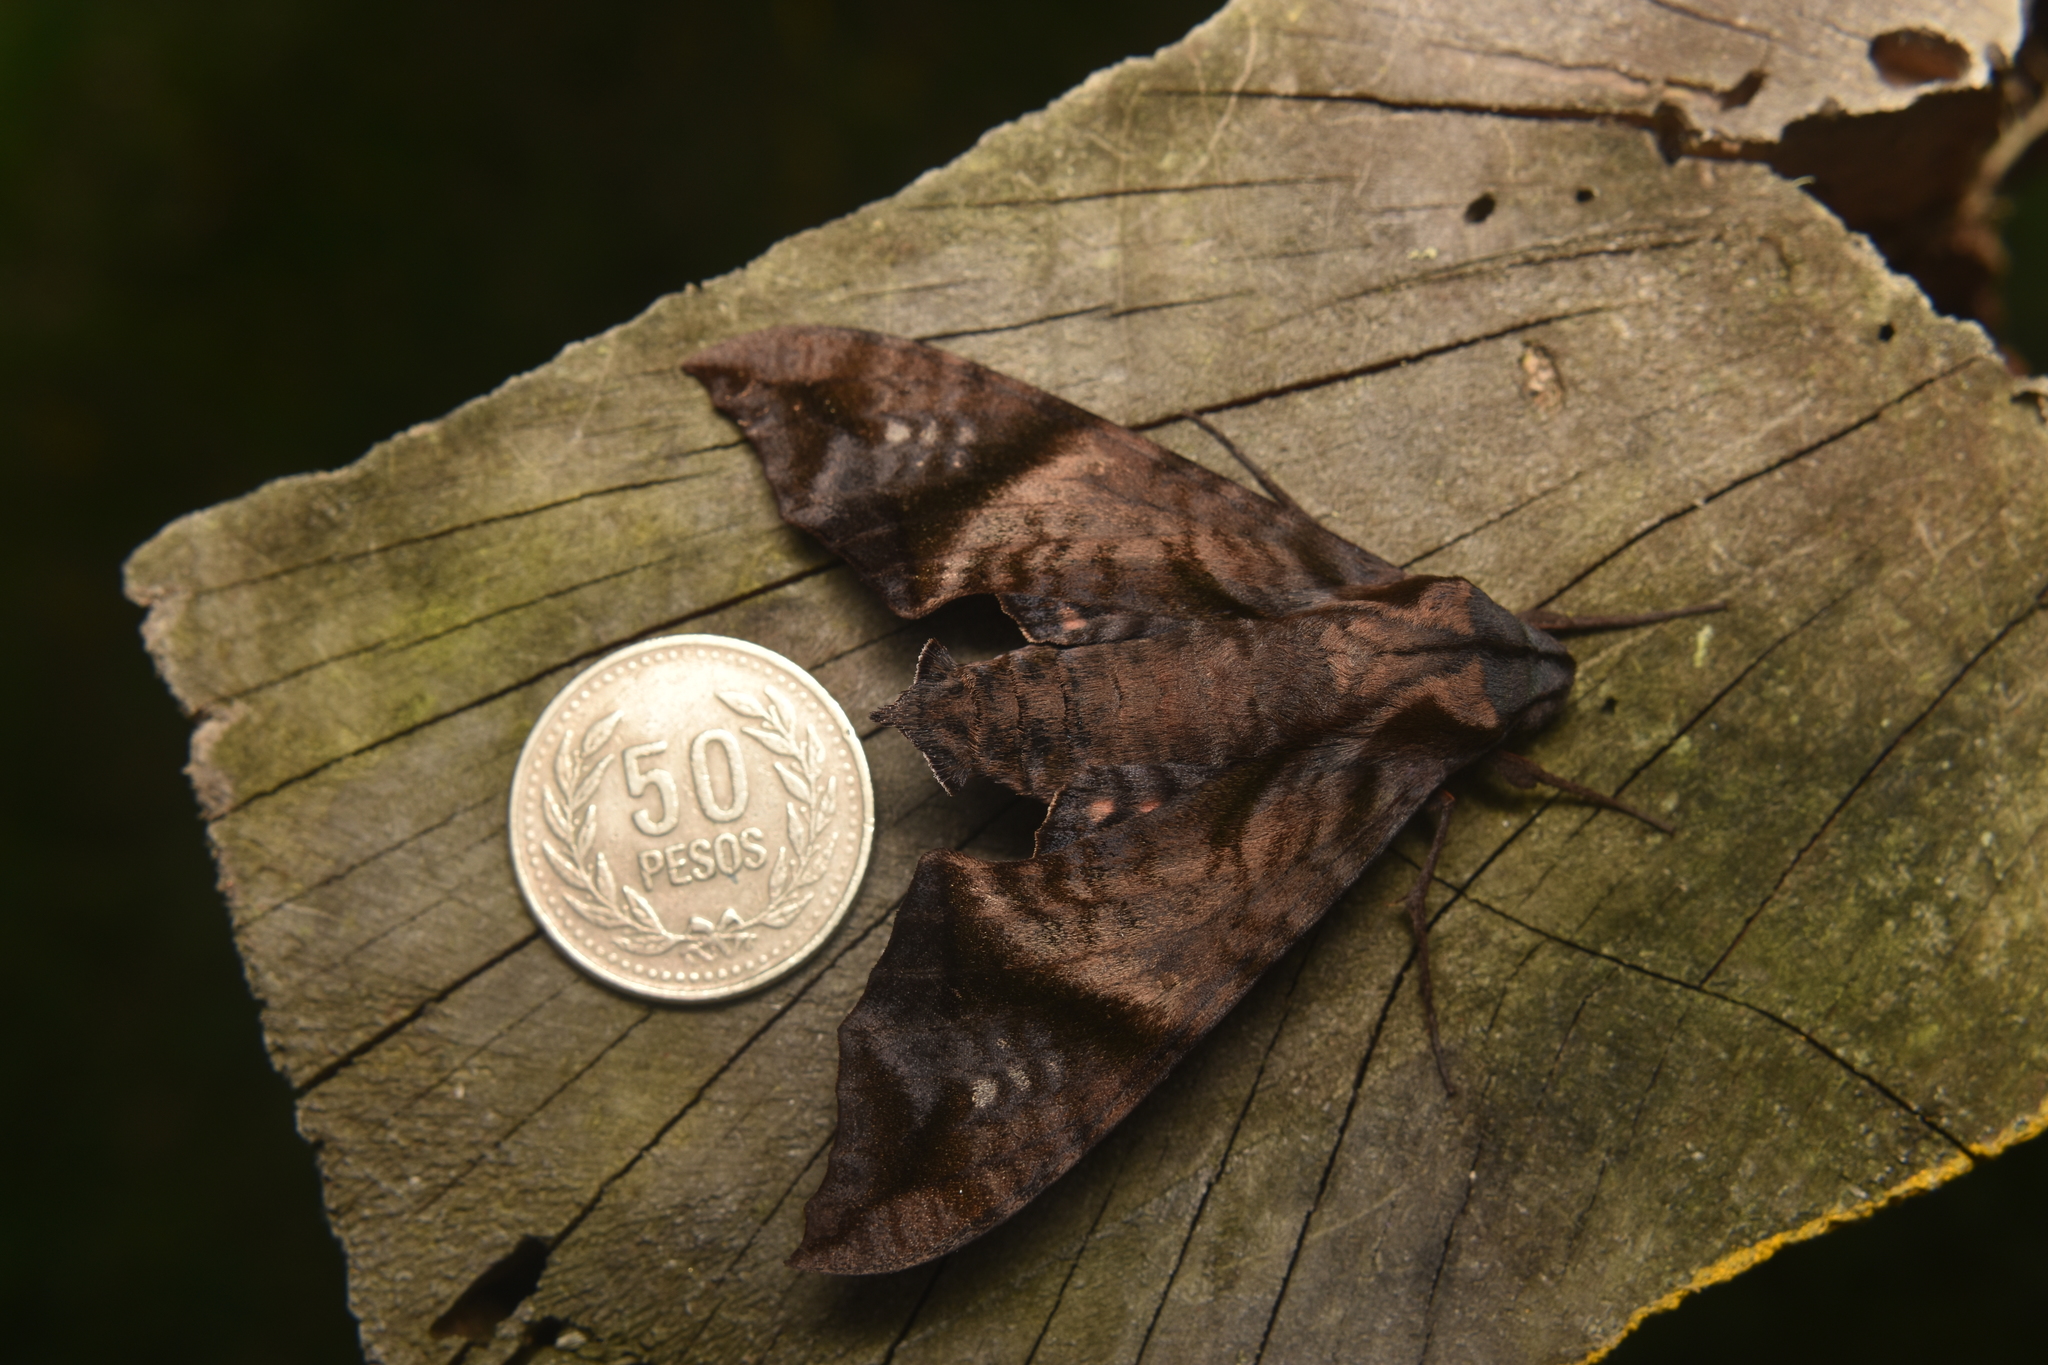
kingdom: Animalia
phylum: Arthropoda
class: Insecta
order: Lepidoptera
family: Sphingidae
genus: Nyceryx
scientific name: Nyceryx hyposticta
